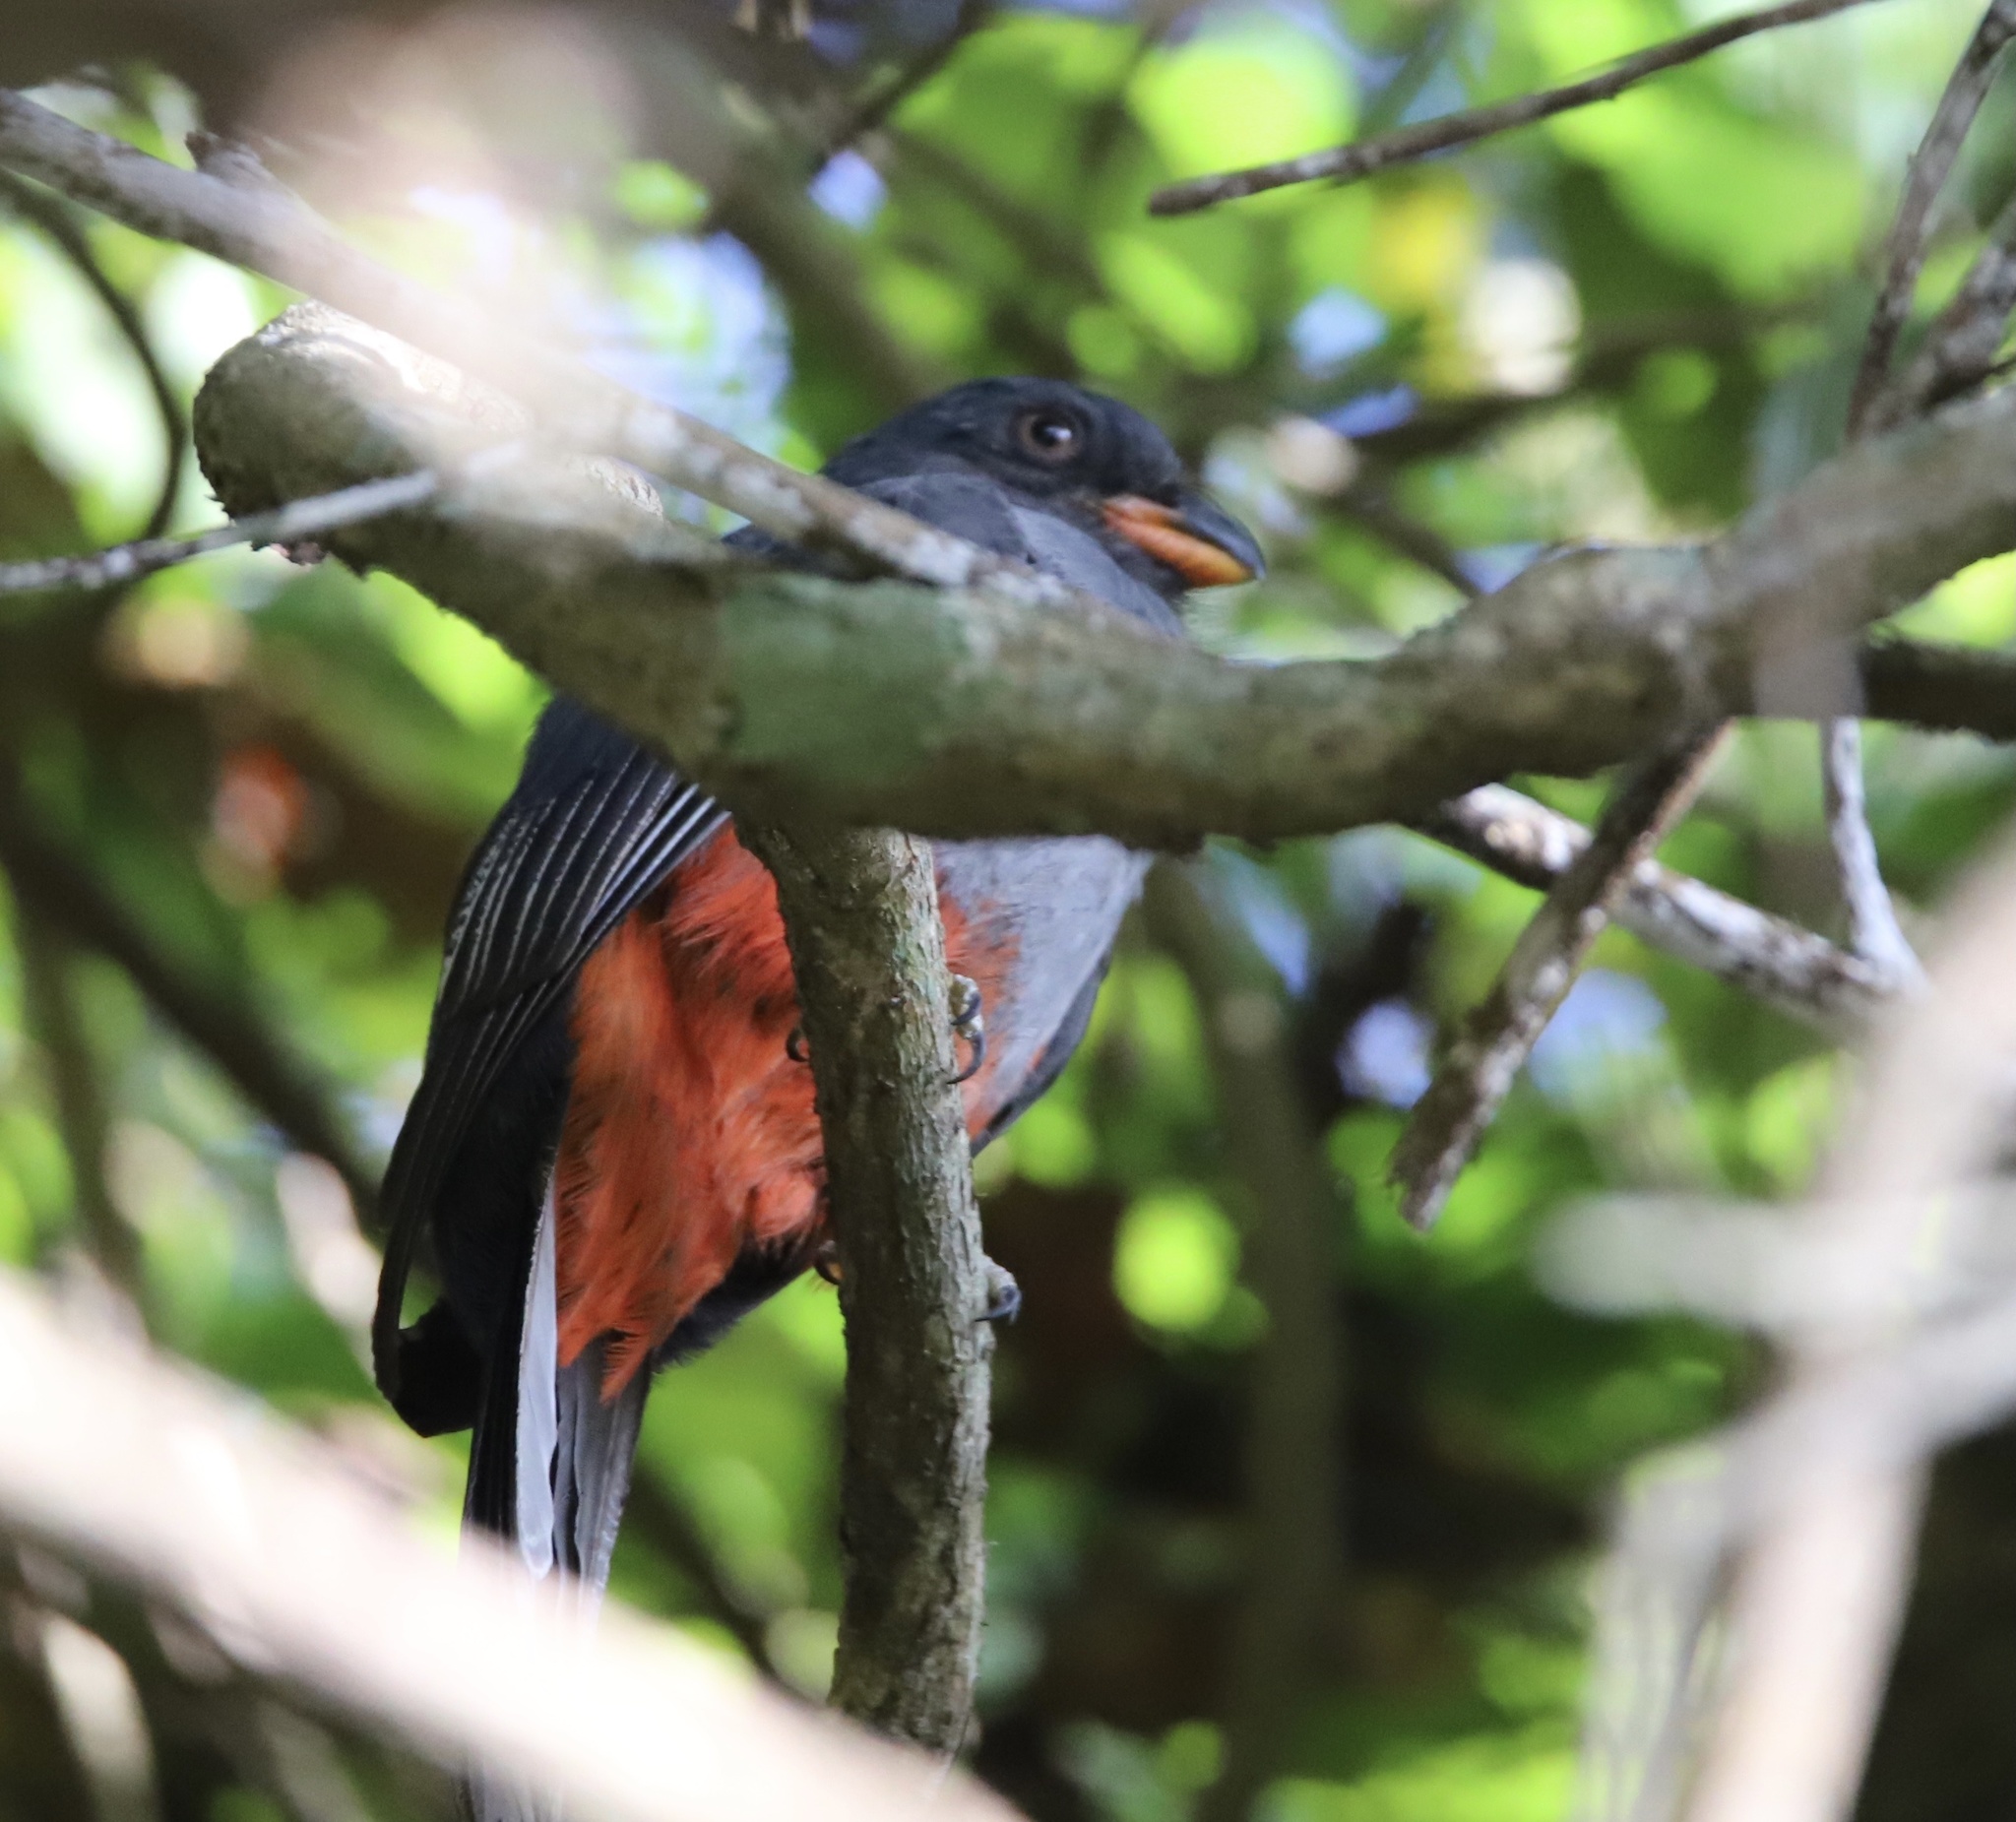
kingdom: Animalia
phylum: Chordata
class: Aves
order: Trogoniformes
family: Trogonidae
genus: Trogon
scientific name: Trogon massena
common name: Slaty-tailed trogon
